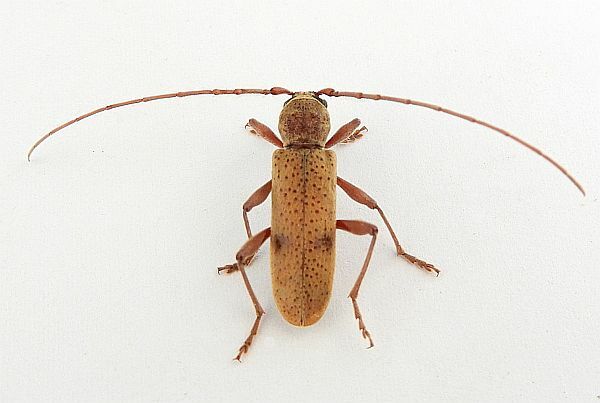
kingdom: Animalia
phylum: Arthropoda
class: Insecta
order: Coleoptera
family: Cerambycidae
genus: Brothylus
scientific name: Brothylus gemmulatus
